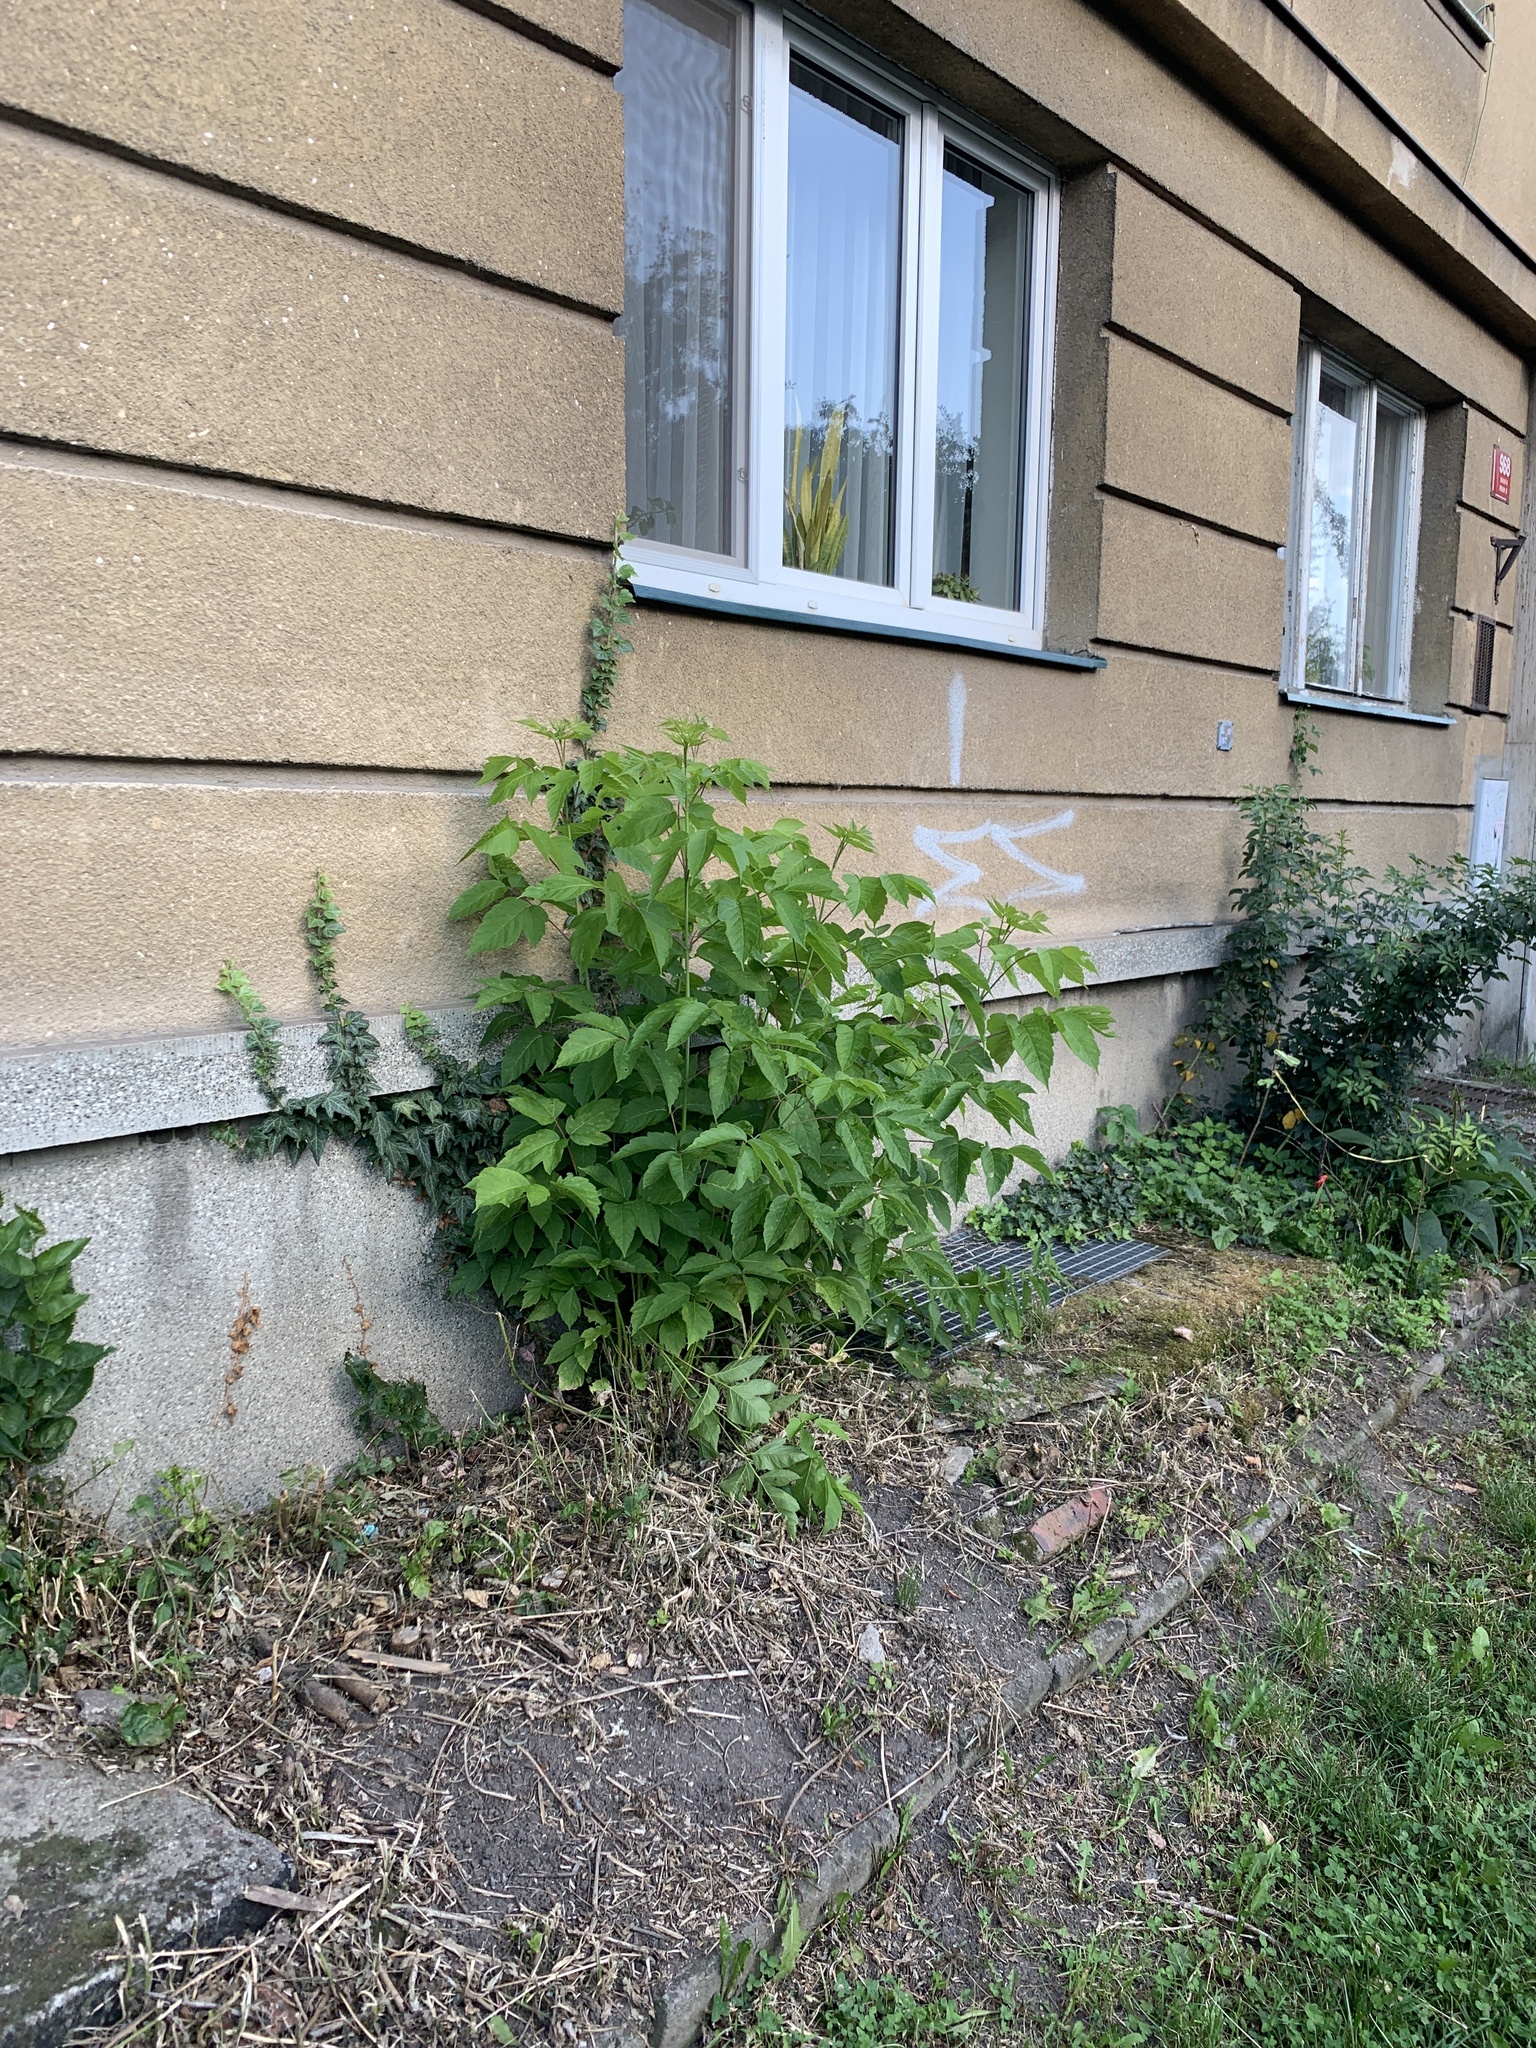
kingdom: Plantae
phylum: Tracheophyta
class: Magnoliopsida
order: Sapindales
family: Sapindaceae
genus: Acer
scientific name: Acer negundo
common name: Ashleaf maple
